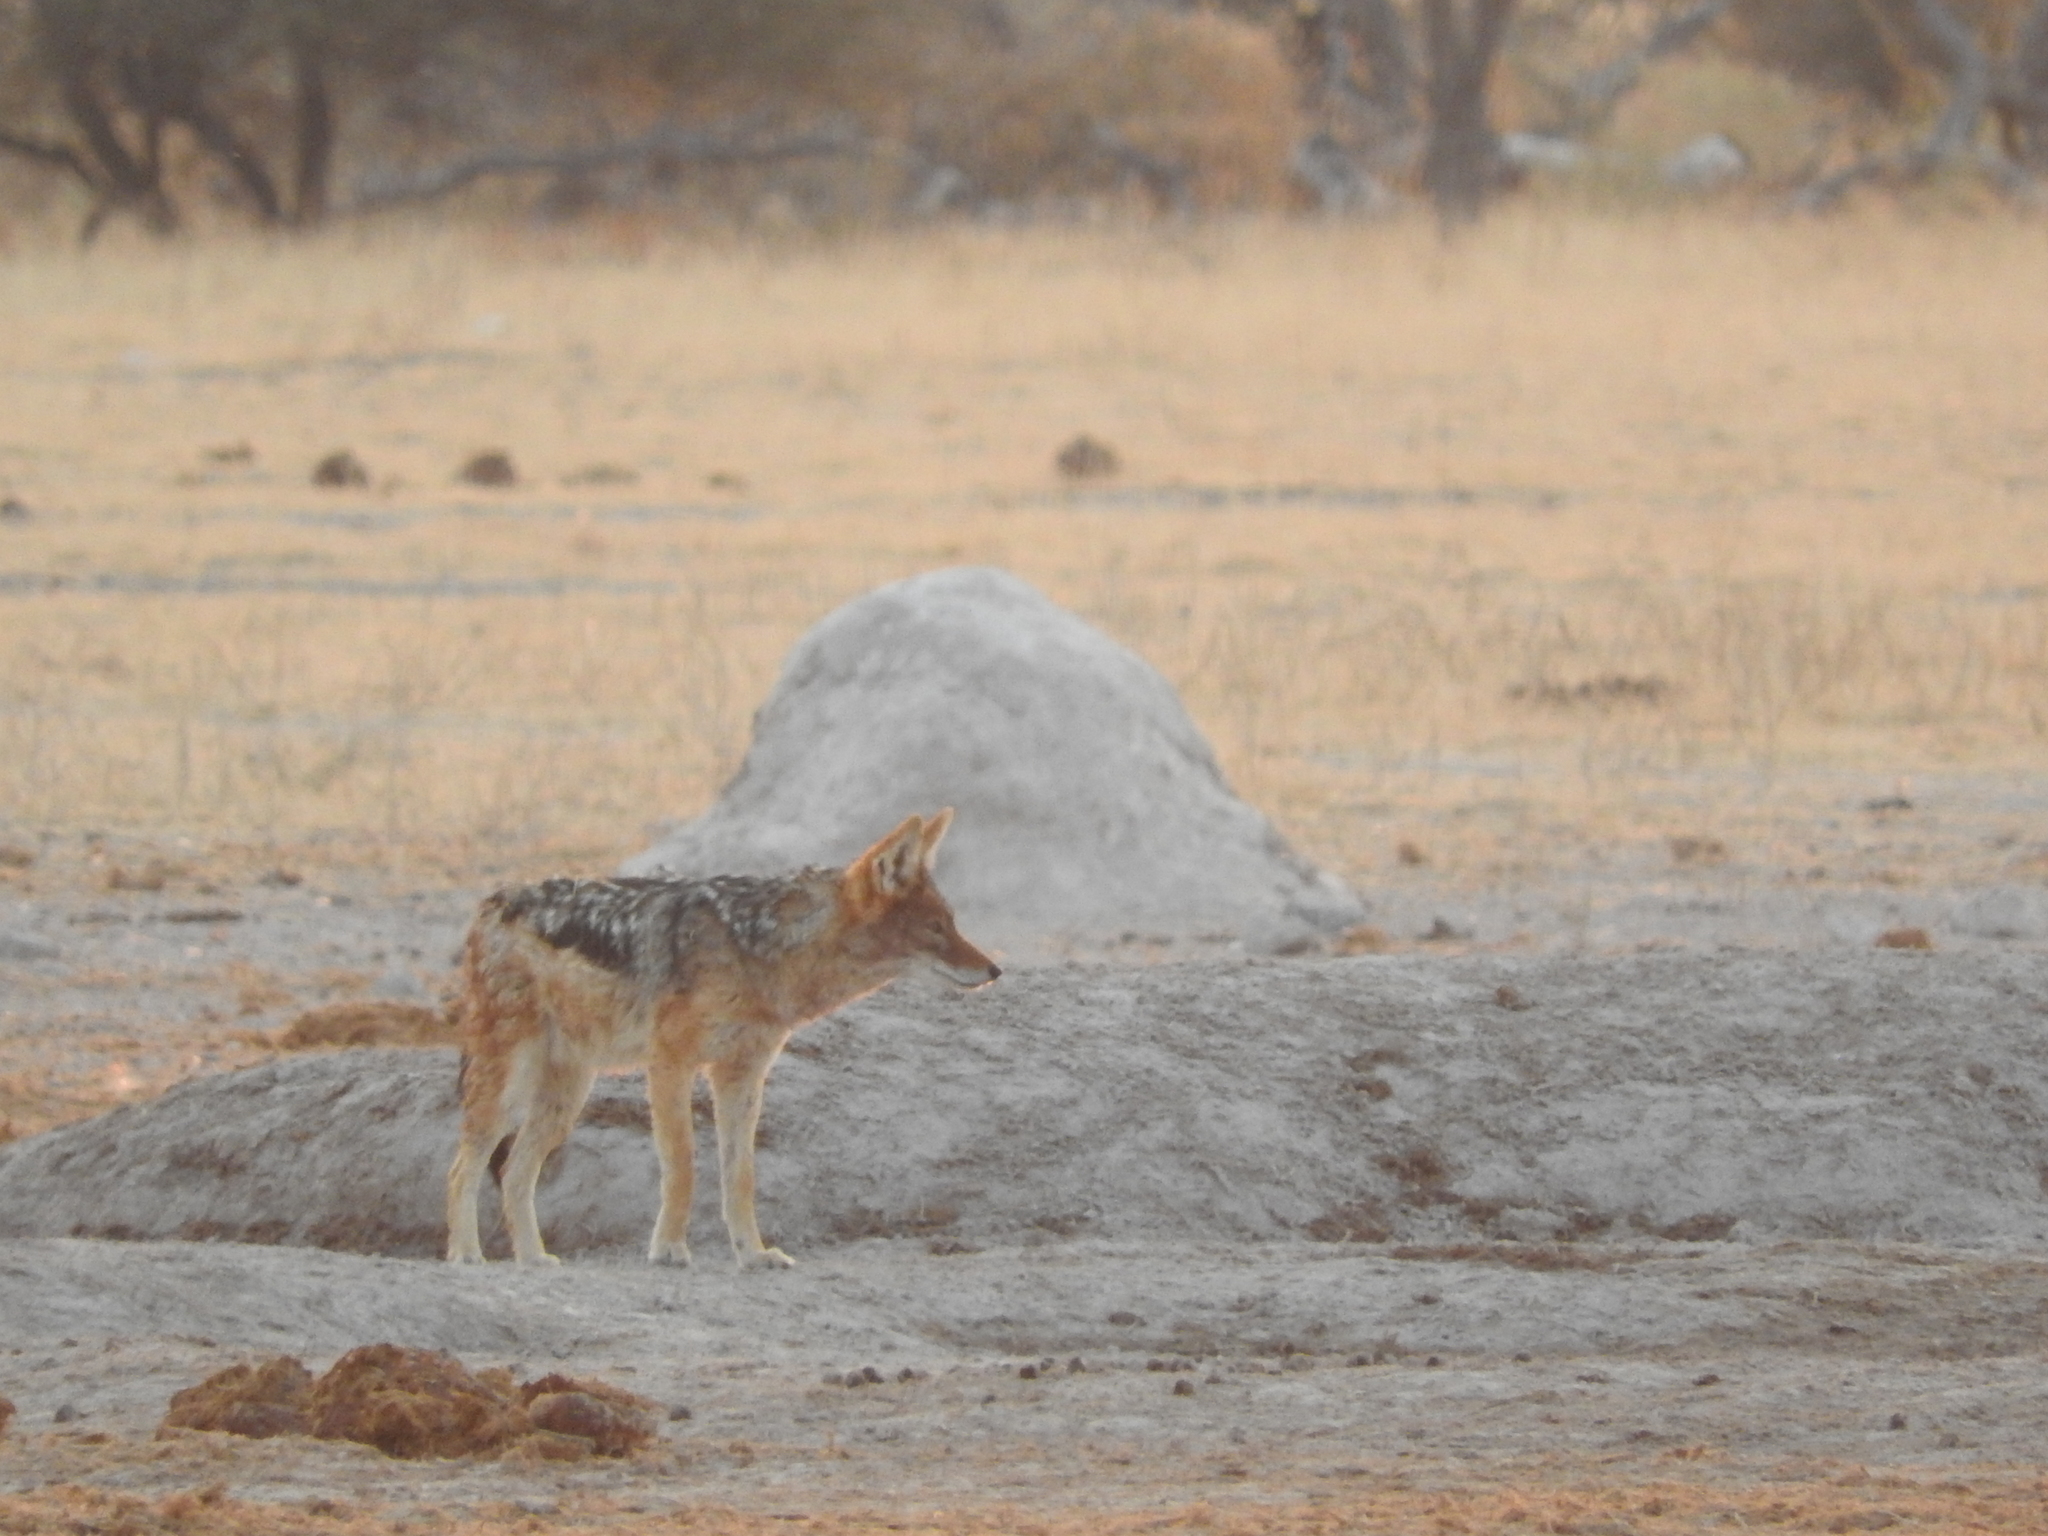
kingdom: Animalia
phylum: Chordata
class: Mammalia
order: Carnivora
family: Canidae
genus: Lupulella
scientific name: Lupulella
